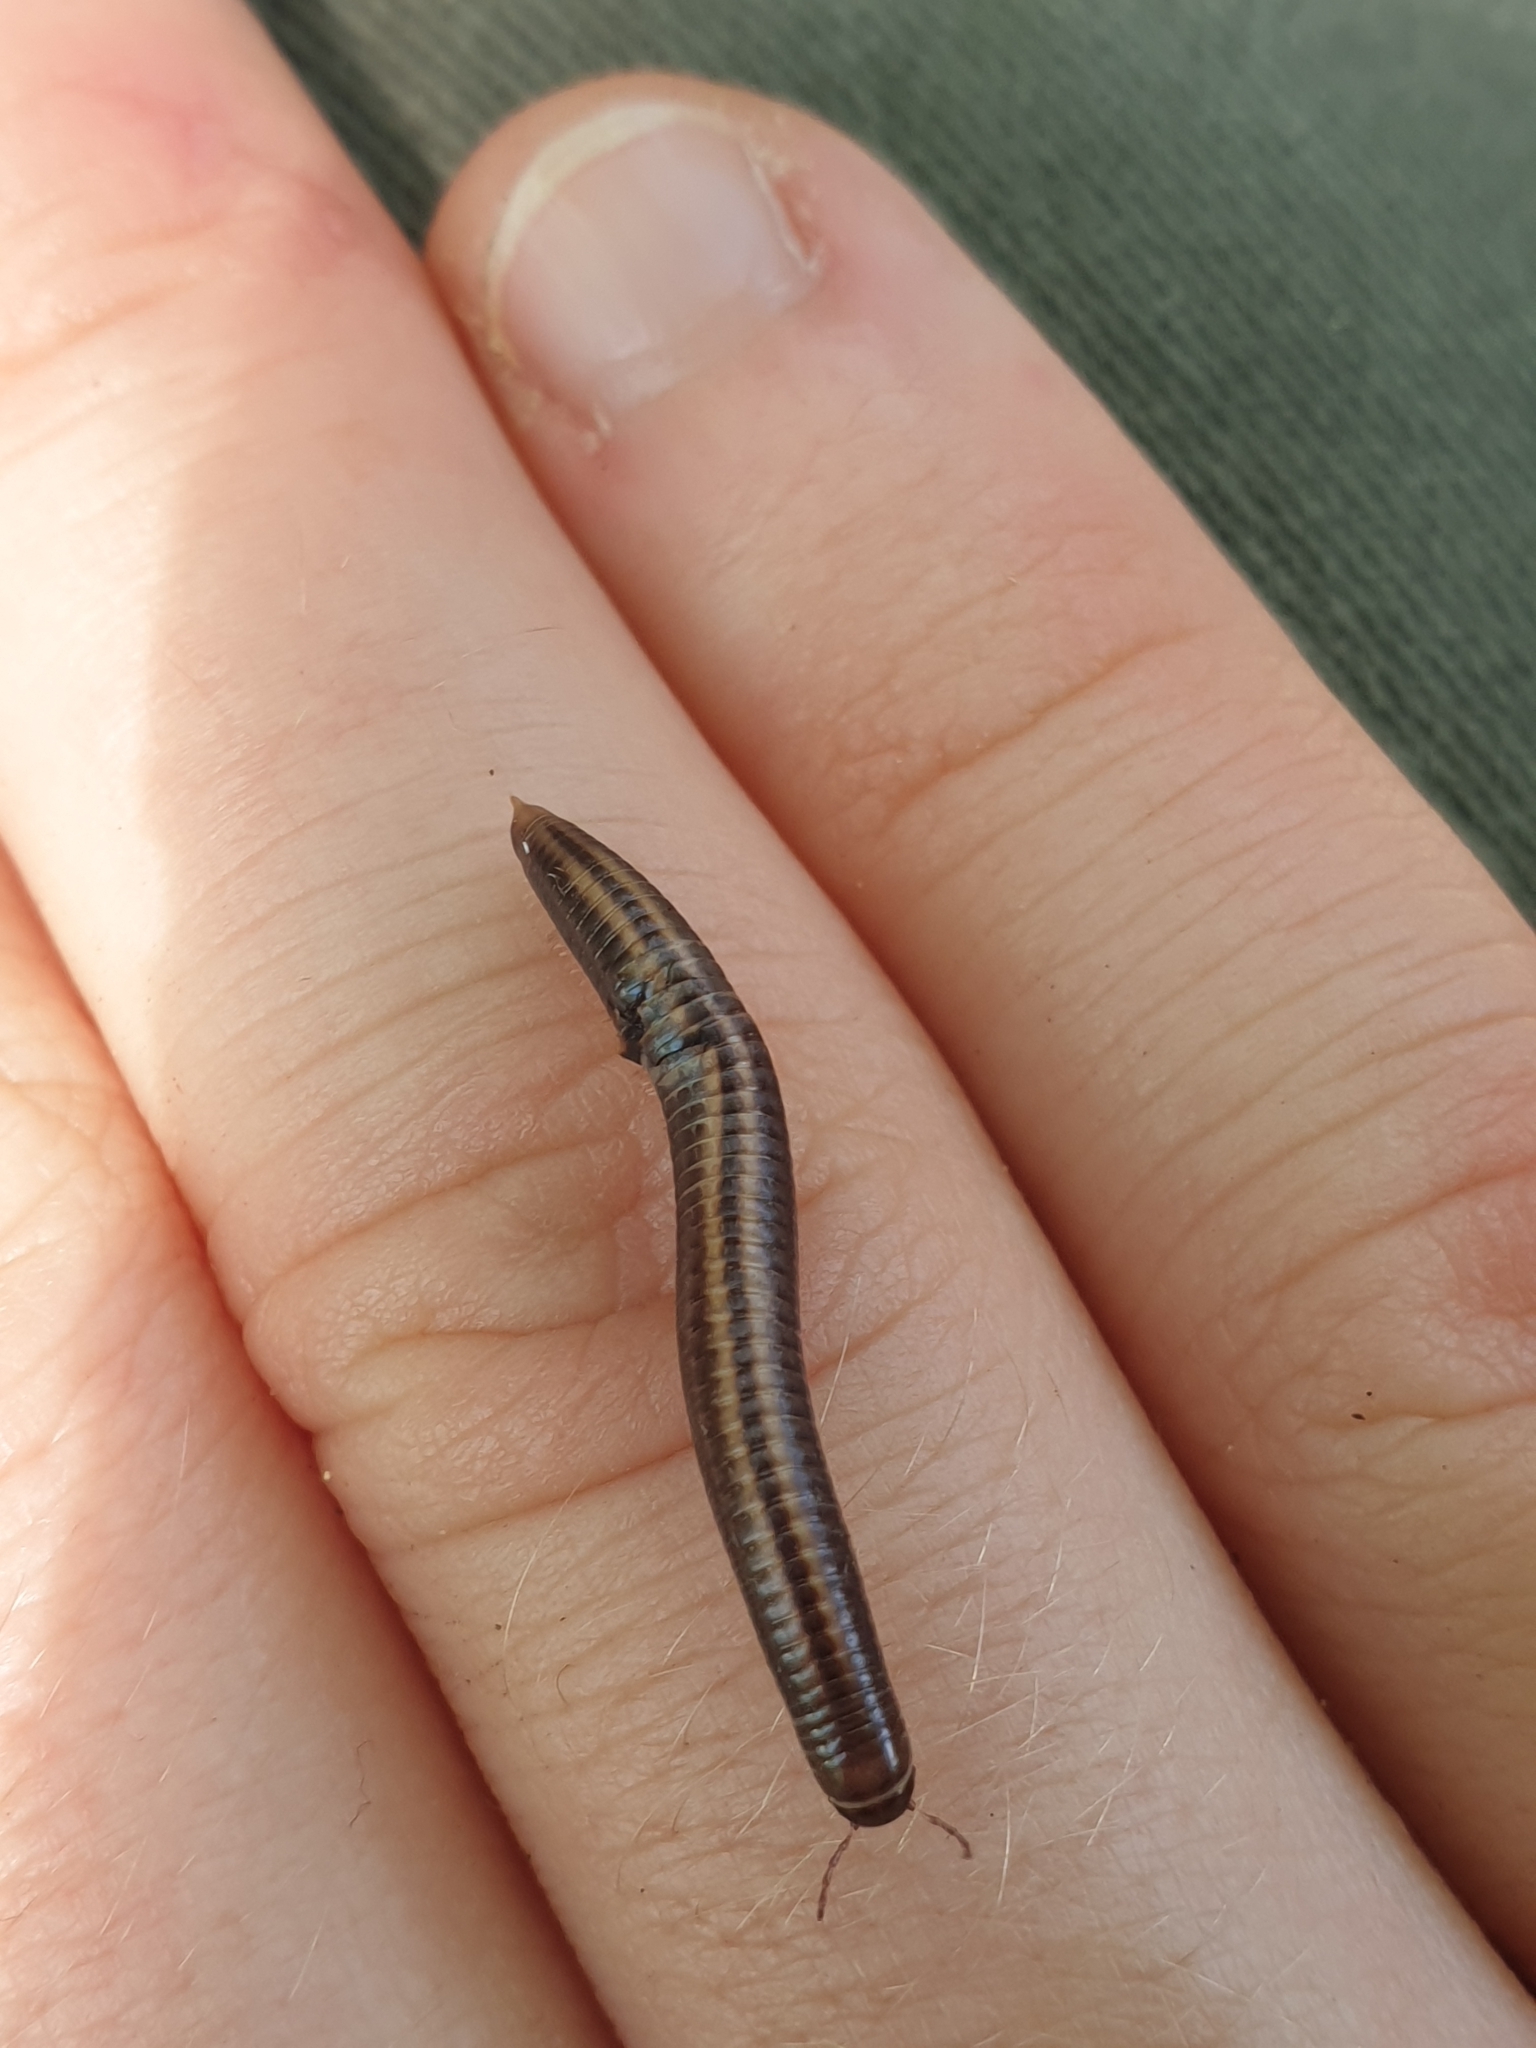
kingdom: Animalia
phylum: Arthropoda
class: Diplopoda
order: Julida
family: Julidae
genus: Ommatoiulus
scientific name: Ommatoiulus sabulosus
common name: Striped millipede
